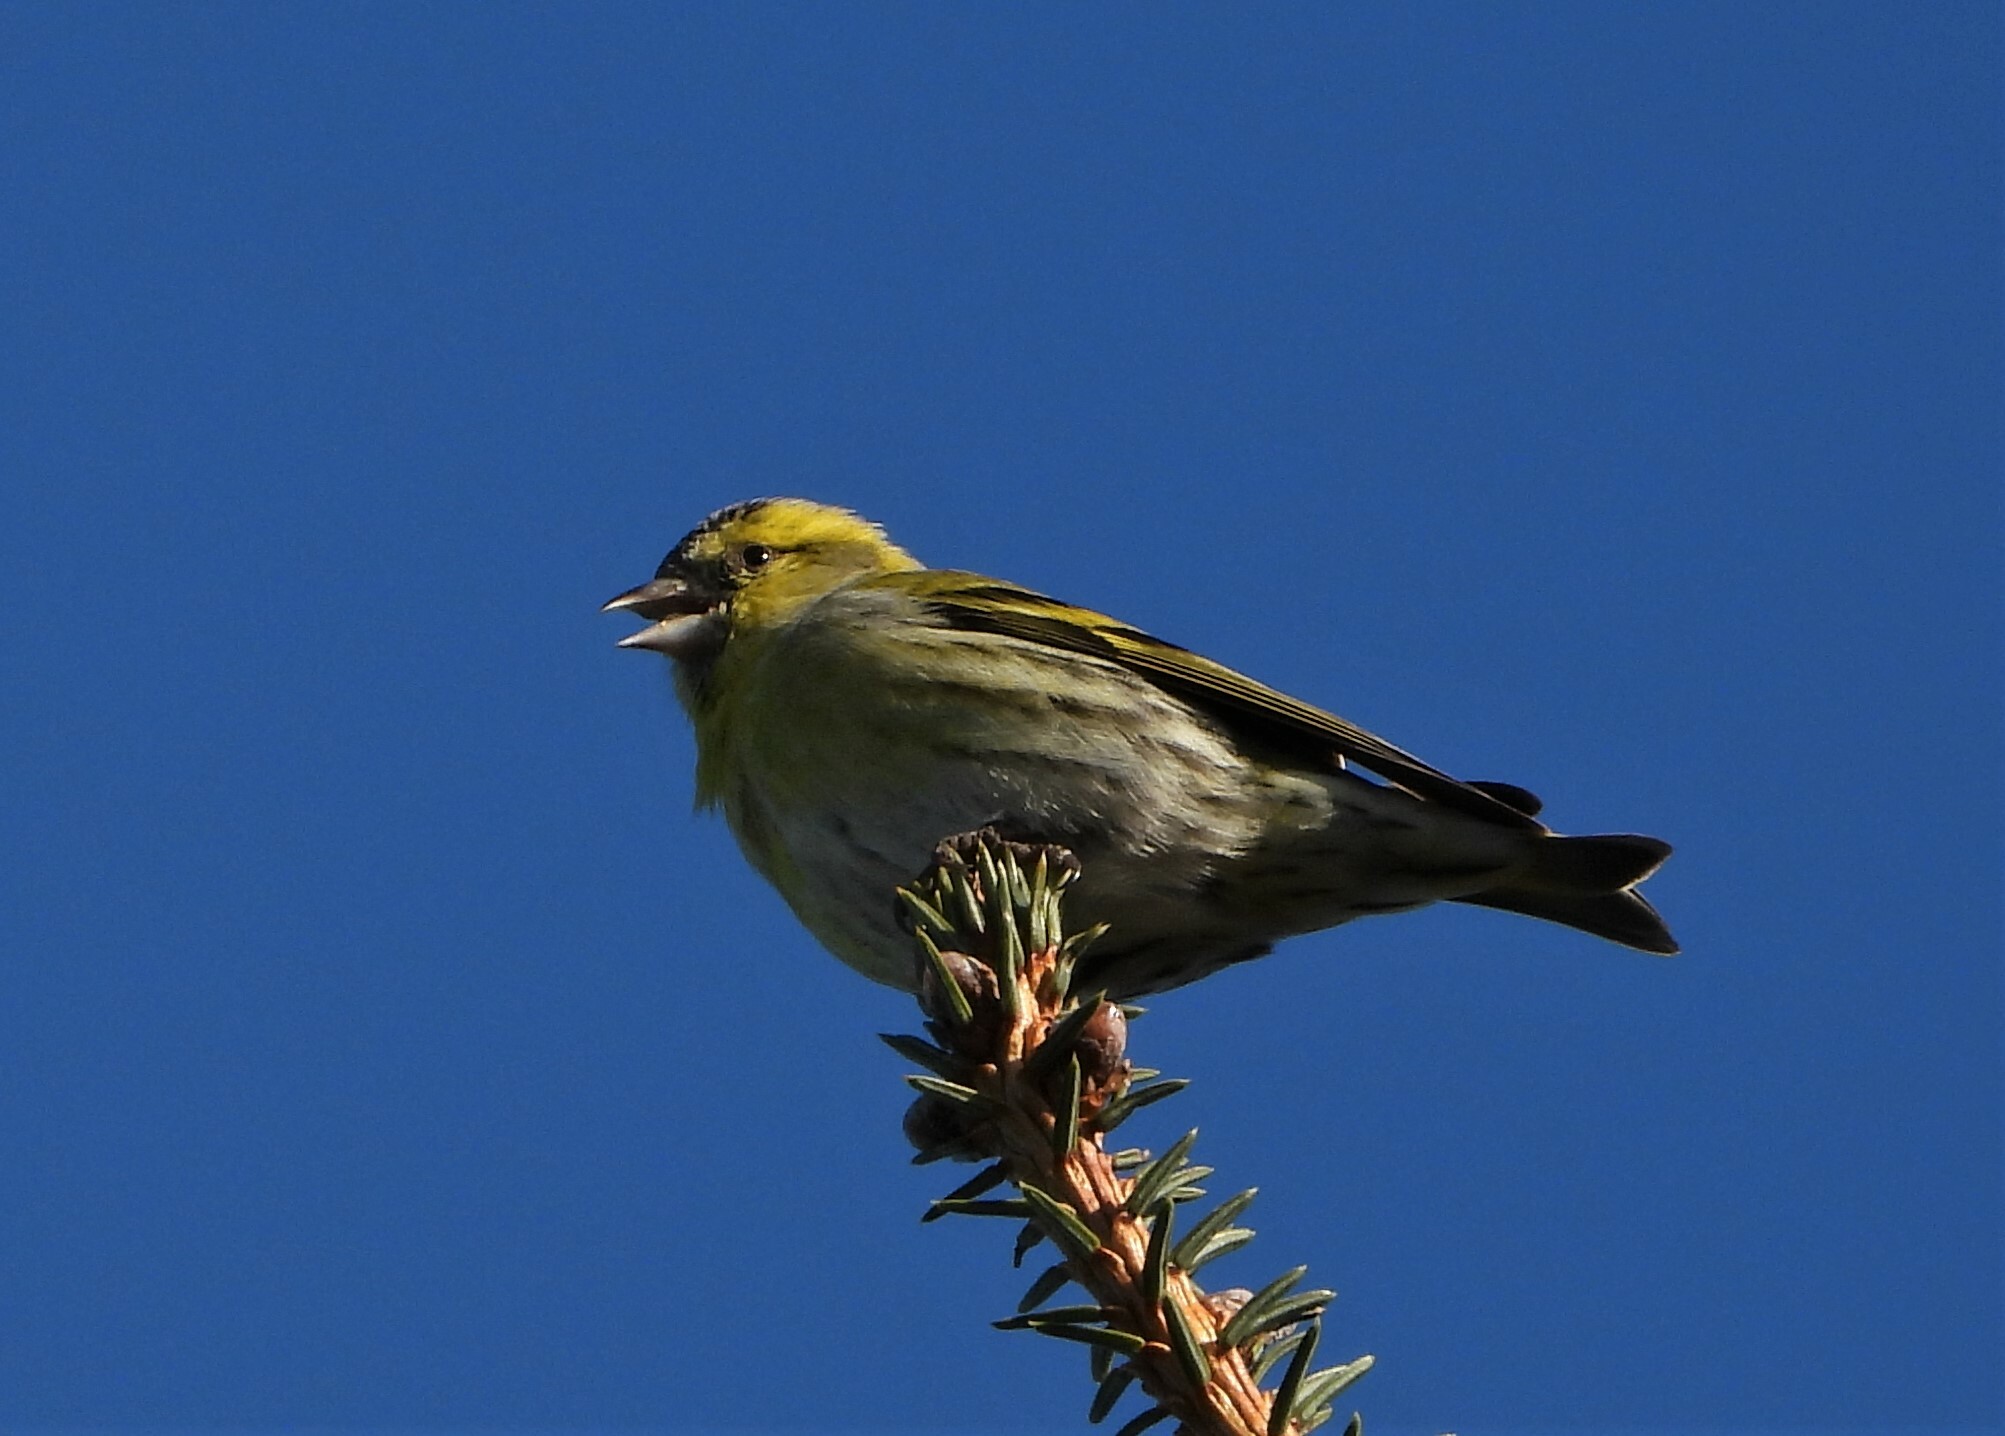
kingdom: Animalia
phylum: Chordata
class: Aves
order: Passeriformes
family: Fringillidae
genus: Spinus
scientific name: Spinus spinus
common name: Eurasian siskin
